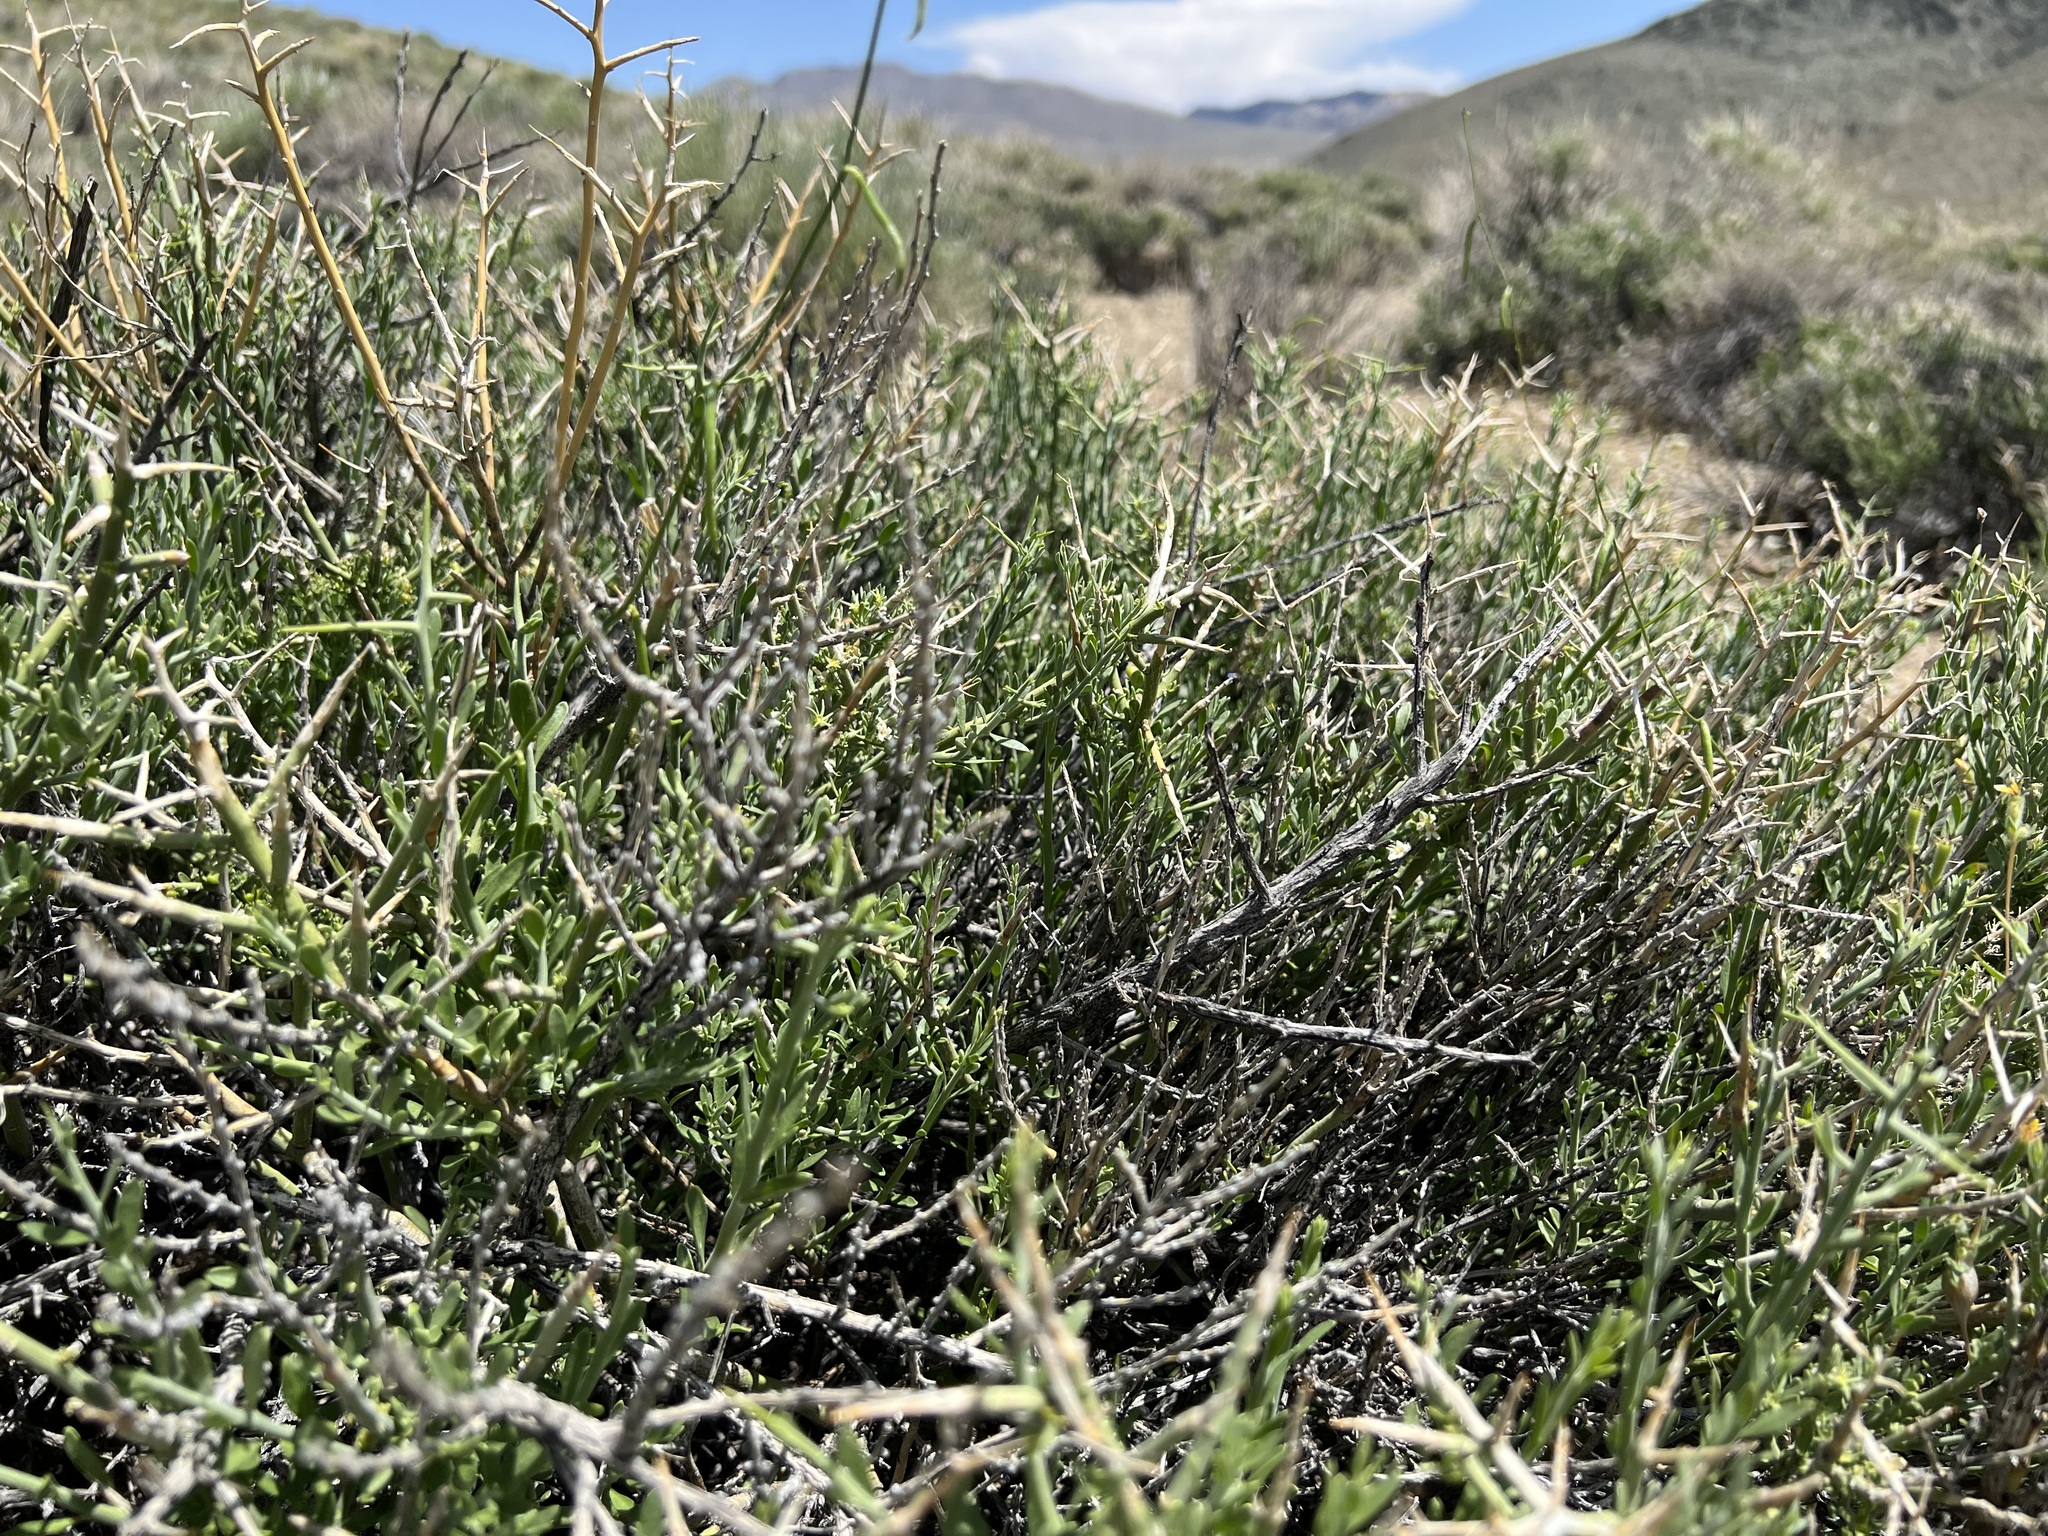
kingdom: Plantae
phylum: Tracheophyta
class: Magnoliopsida
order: Lamiales
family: Oleaceae
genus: Menodora
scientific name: Menodora spinescens
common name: Spiny menodora
